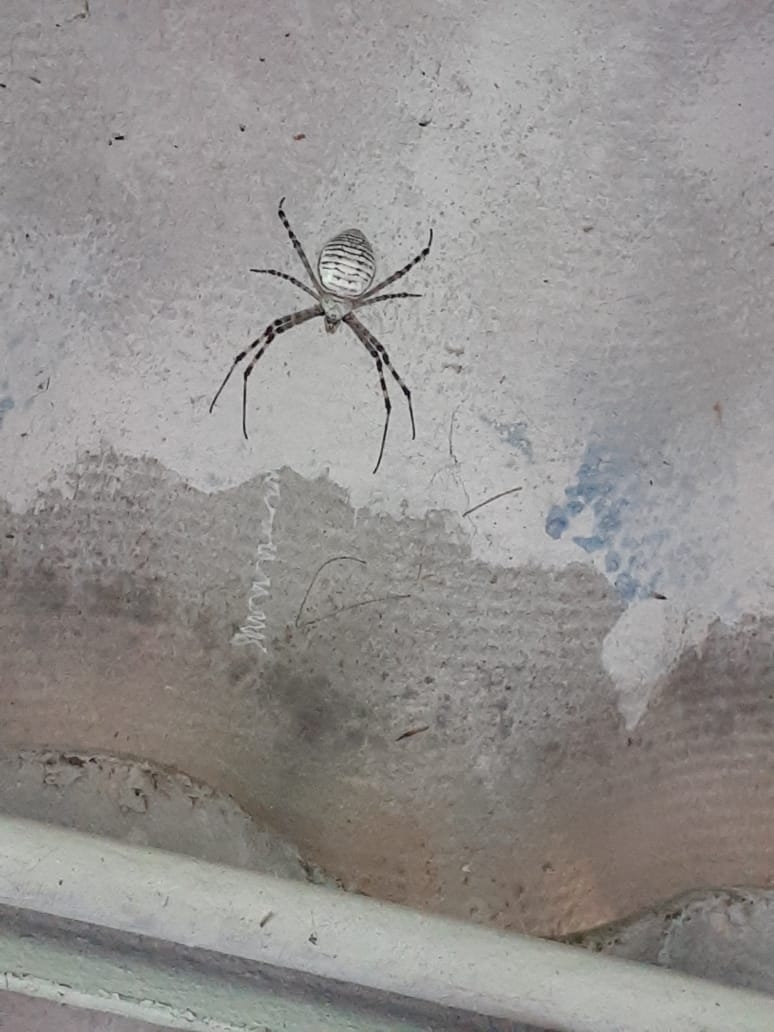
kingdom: Animalia
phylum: Arthropoda
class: Arachnida
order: Araneae
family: Araneidae
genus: Argiope
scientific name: Argiope trifasciata
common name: Banded garden spider
